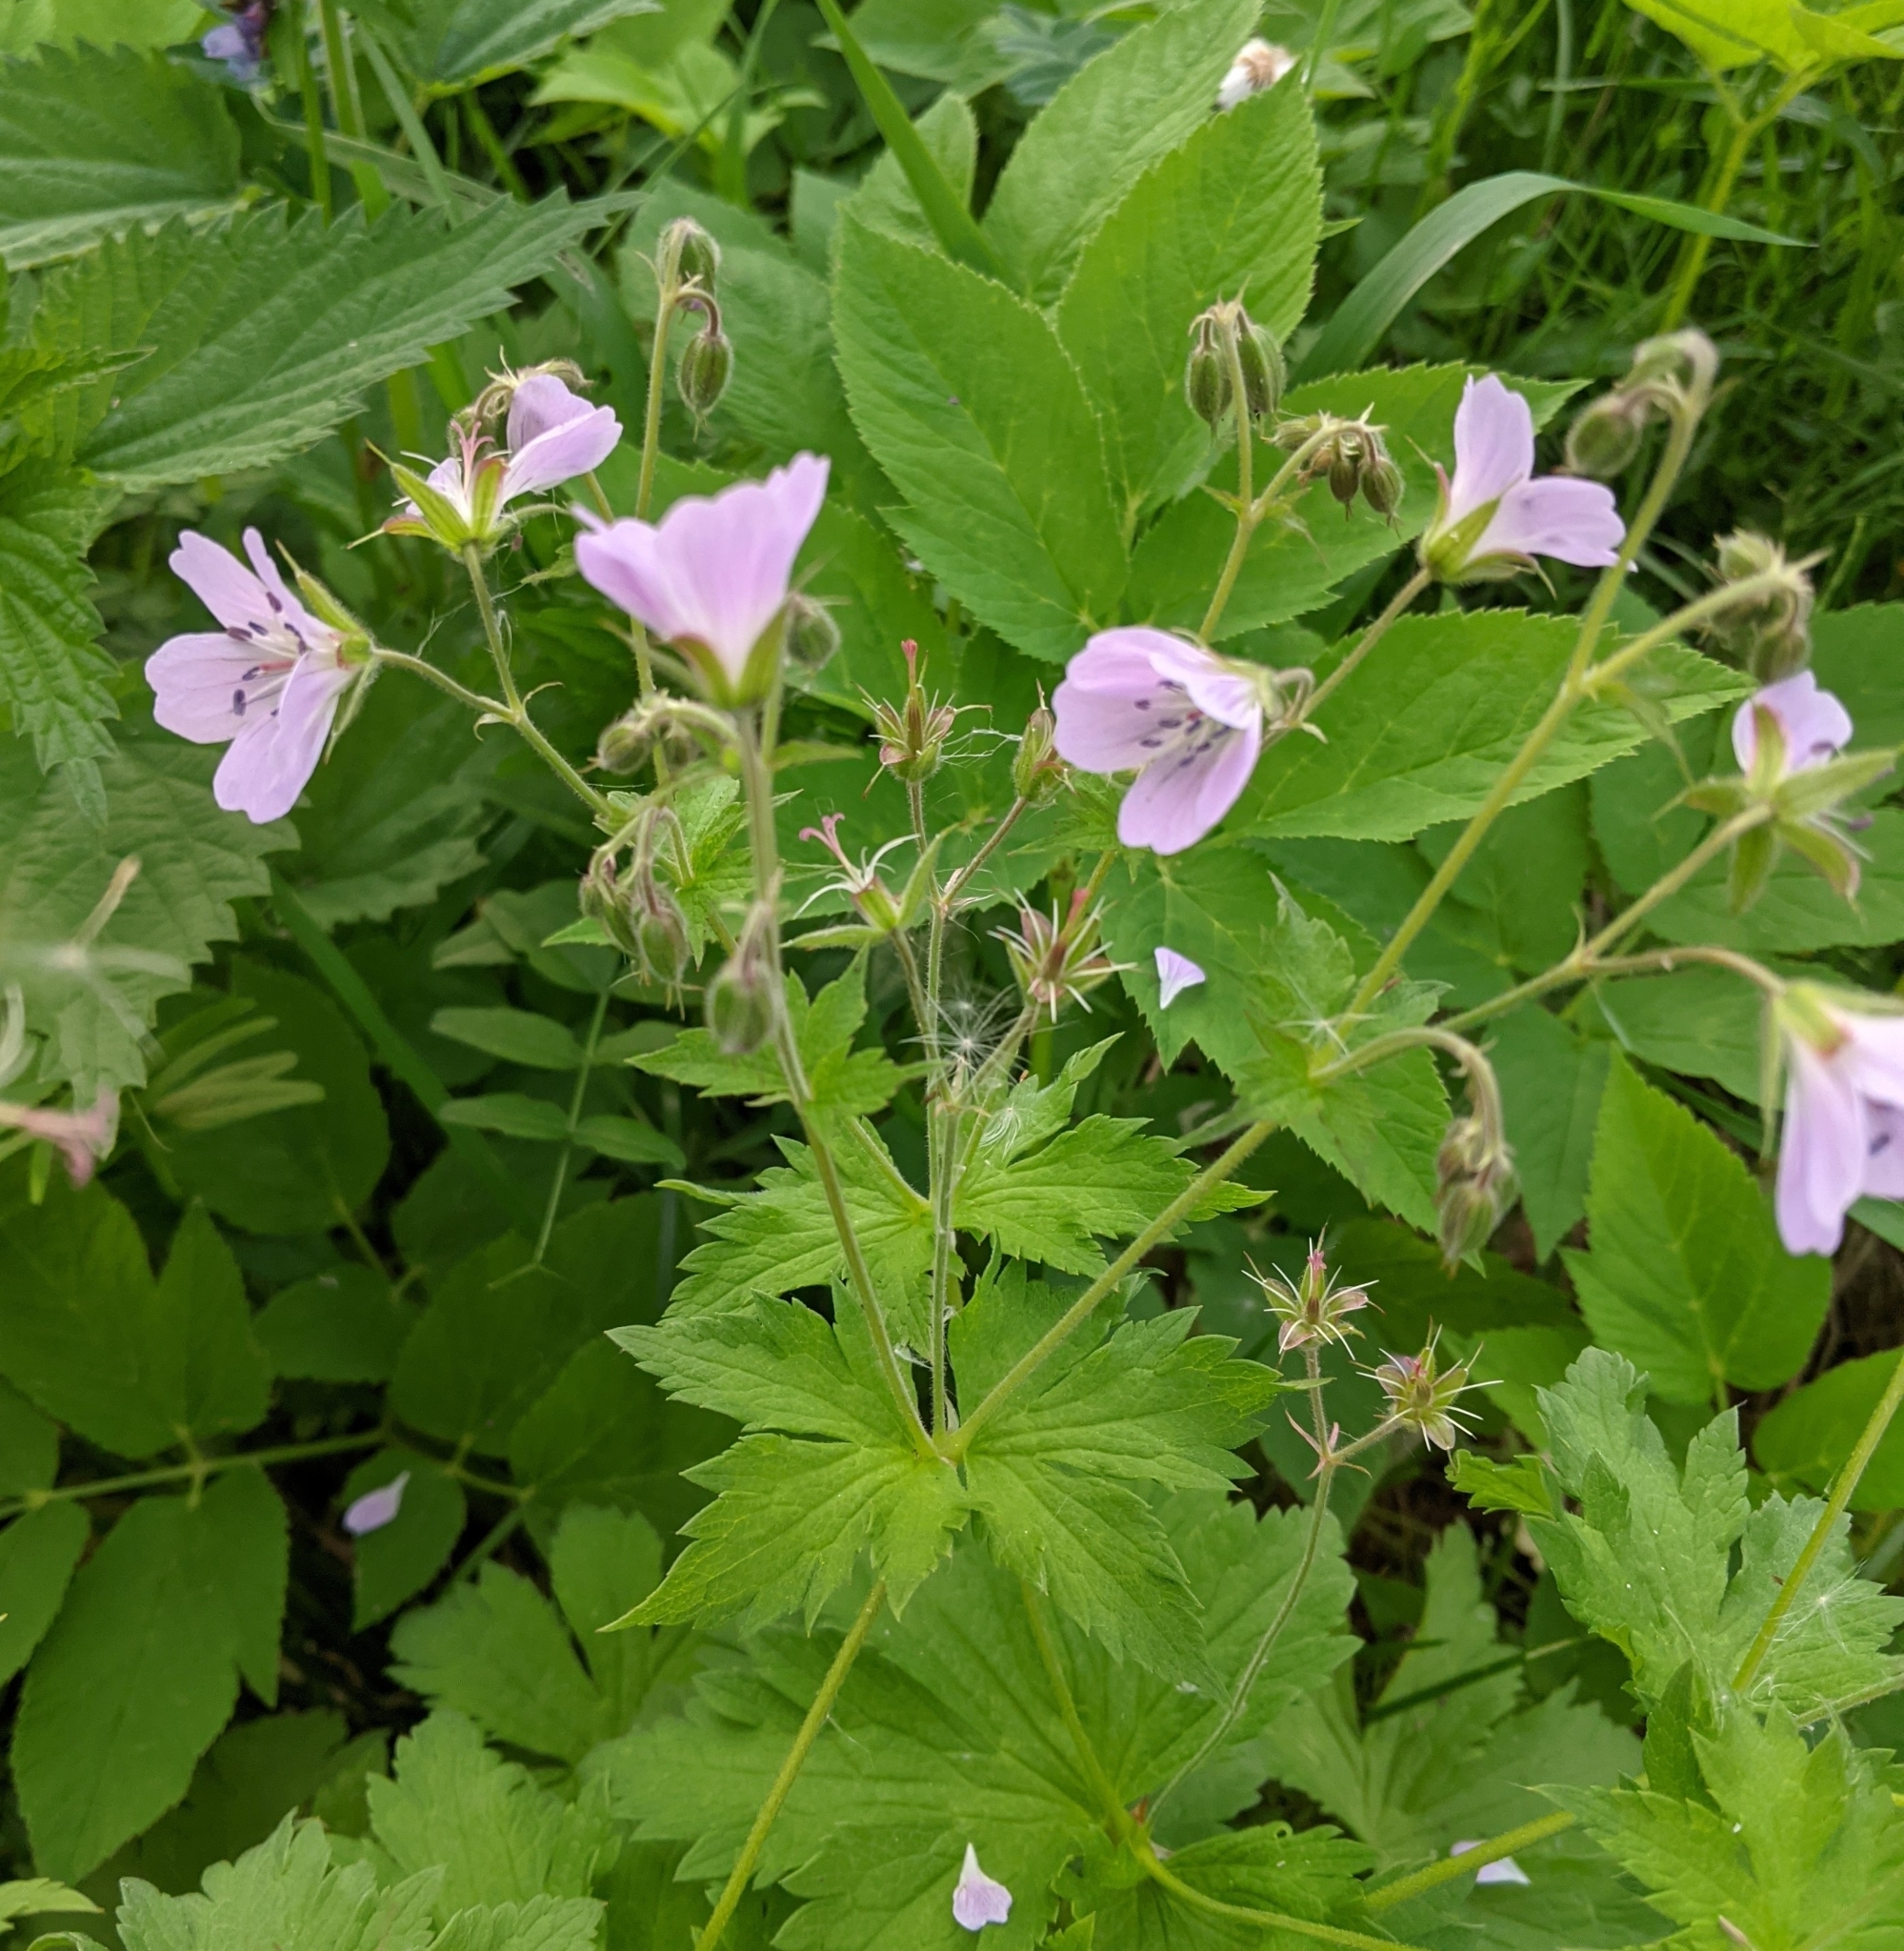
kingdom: Plantae
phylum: Tracheophyta
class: Magnoliopsida
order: Geraniales
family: Geraniaceae
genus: Geranium
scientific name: Geranium sylvaticum
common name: Wood crane's-bill
